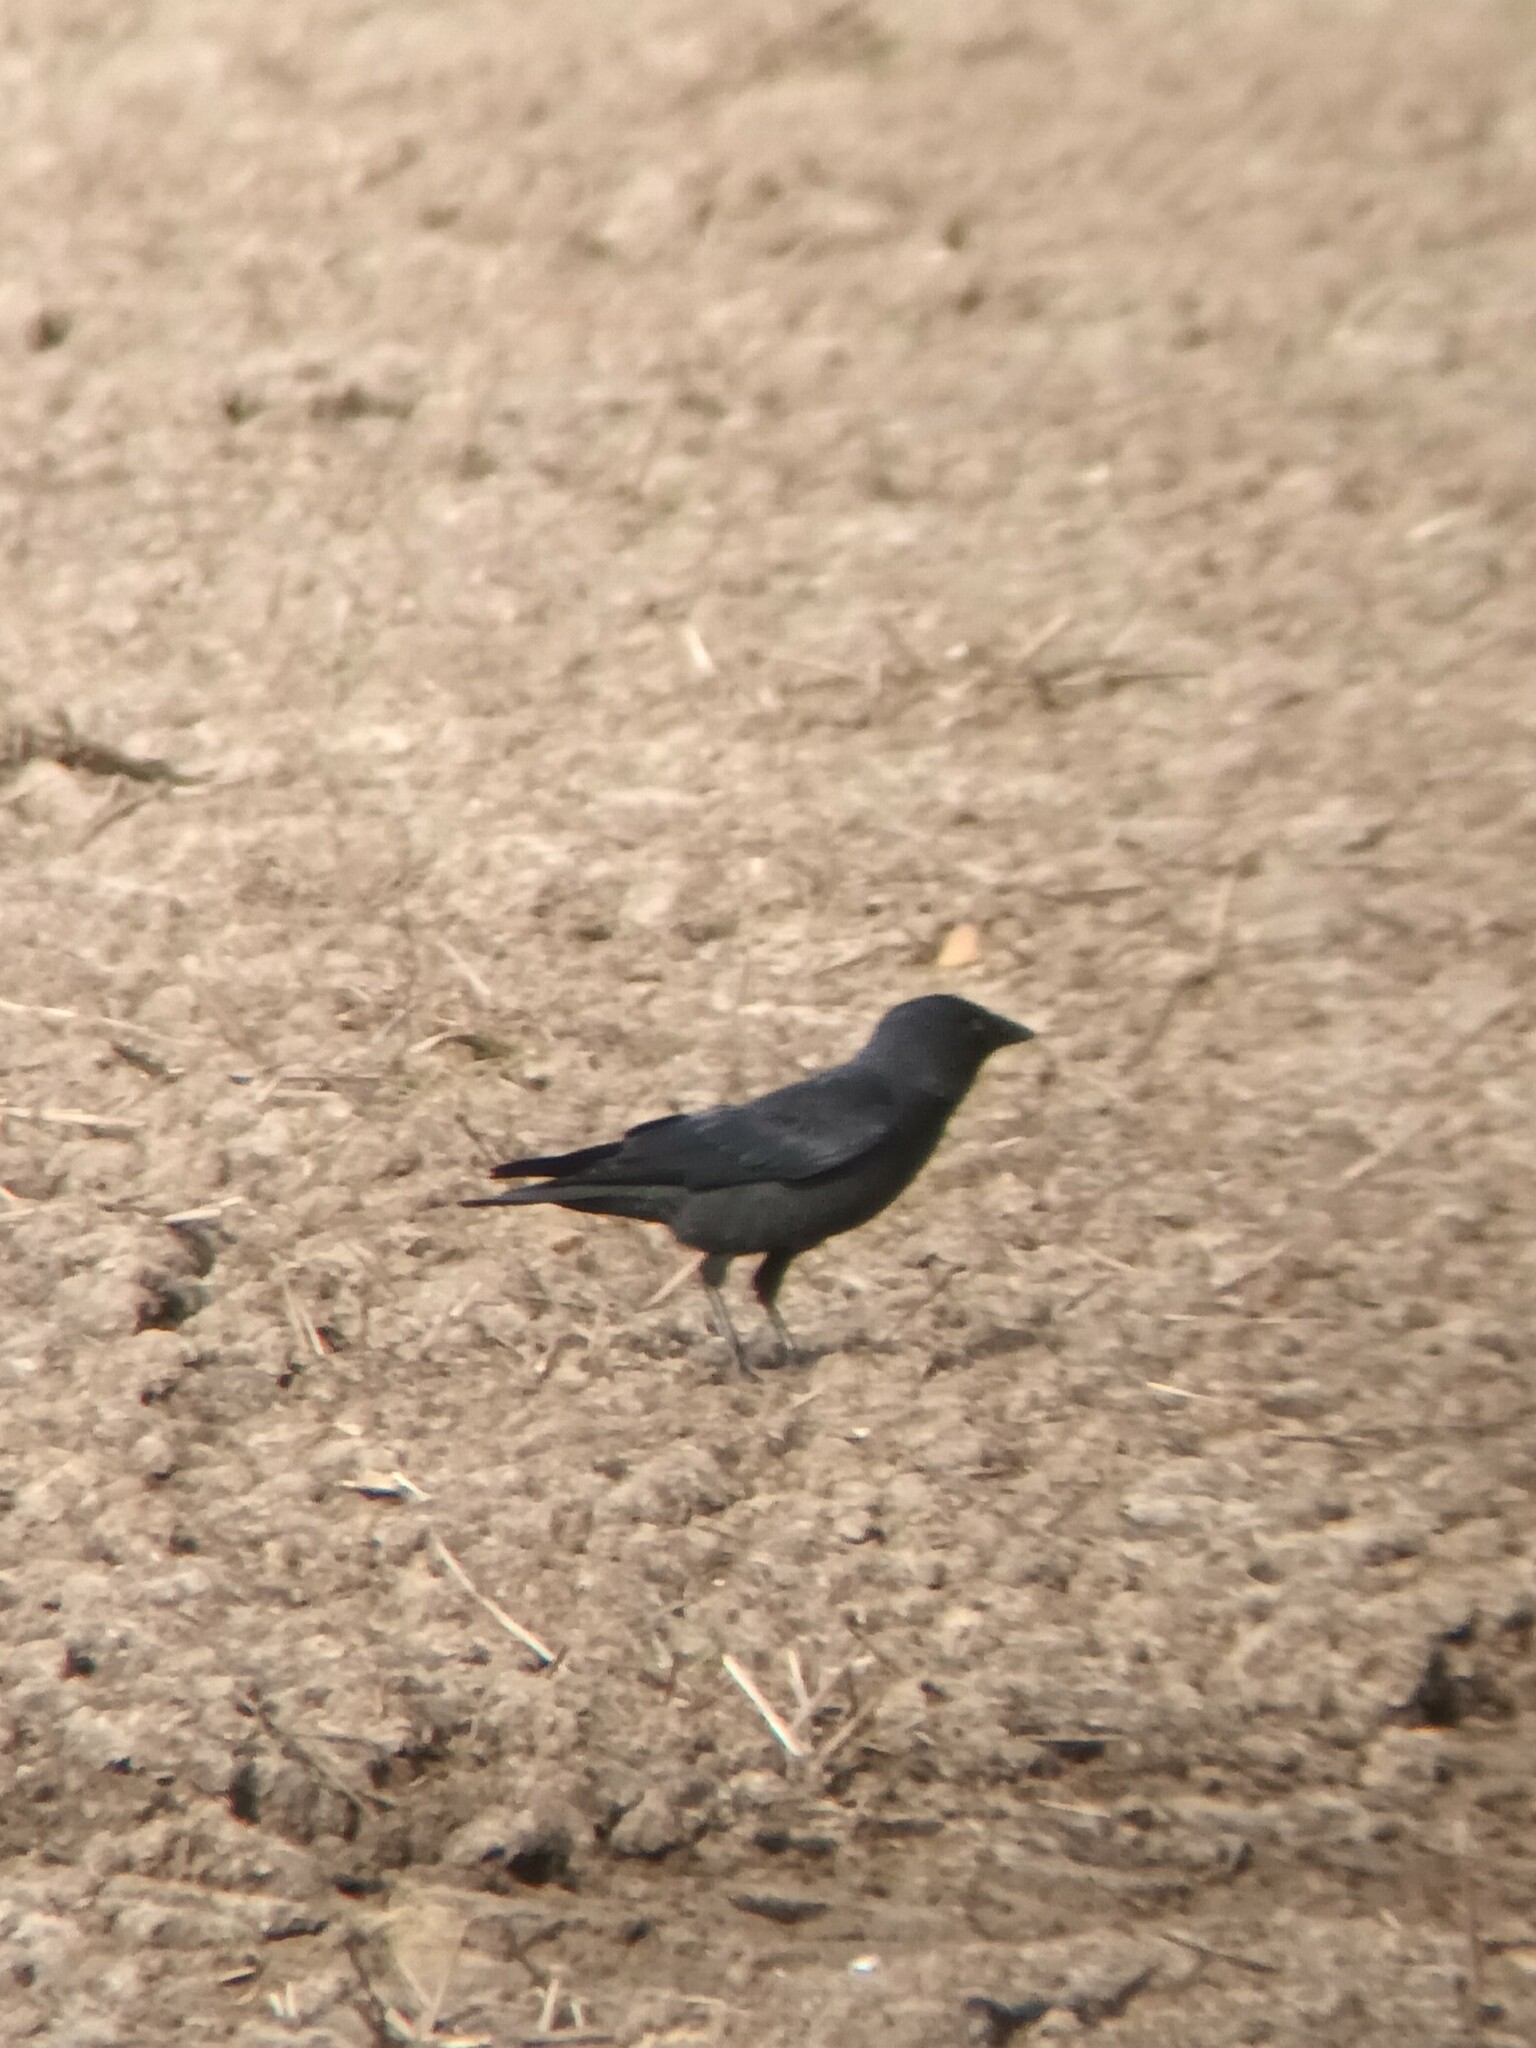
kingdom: Animalia
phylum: Chordata
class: Aves
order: Passeriformes
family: Corvidae
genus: Coloeus
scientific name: Coloeus monedula
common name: Western jackdaw
